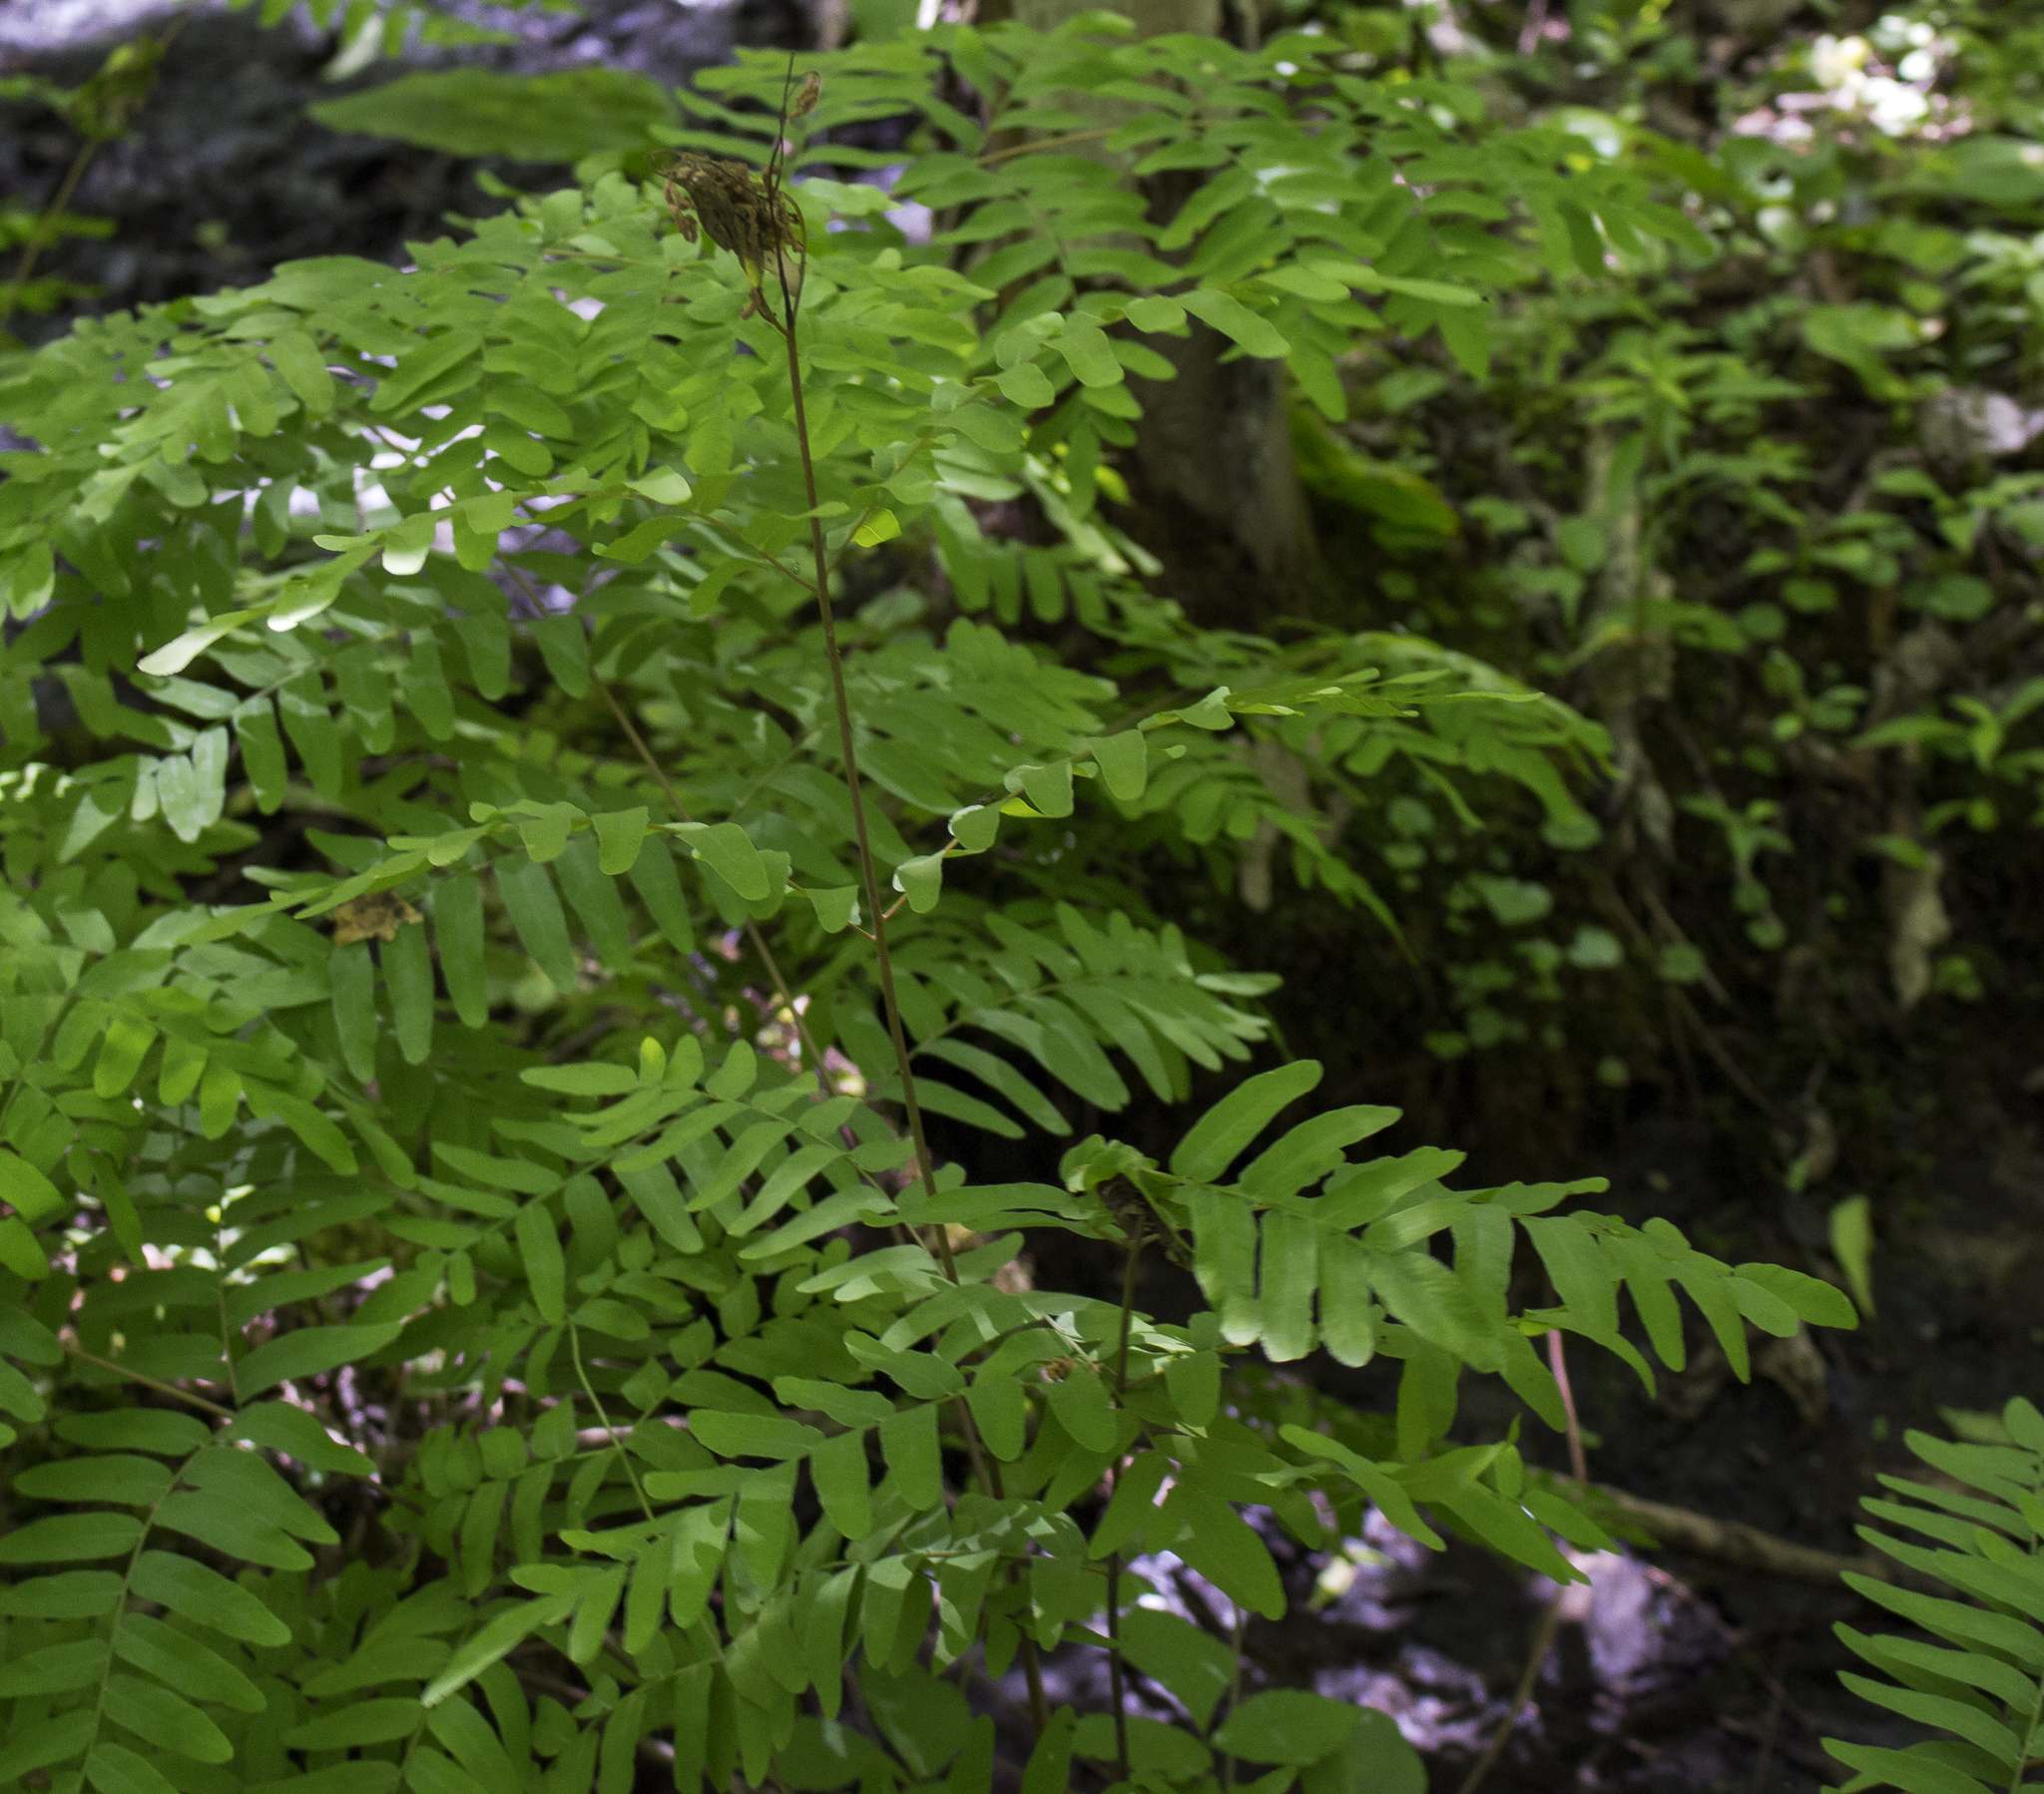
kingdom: Plantae
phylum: Tracheophyta
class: Polypodiopsida
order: Osmundales
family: Osmundaceae
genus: Osmunda
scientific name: Osmunda spectabilis
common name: American royal fern
